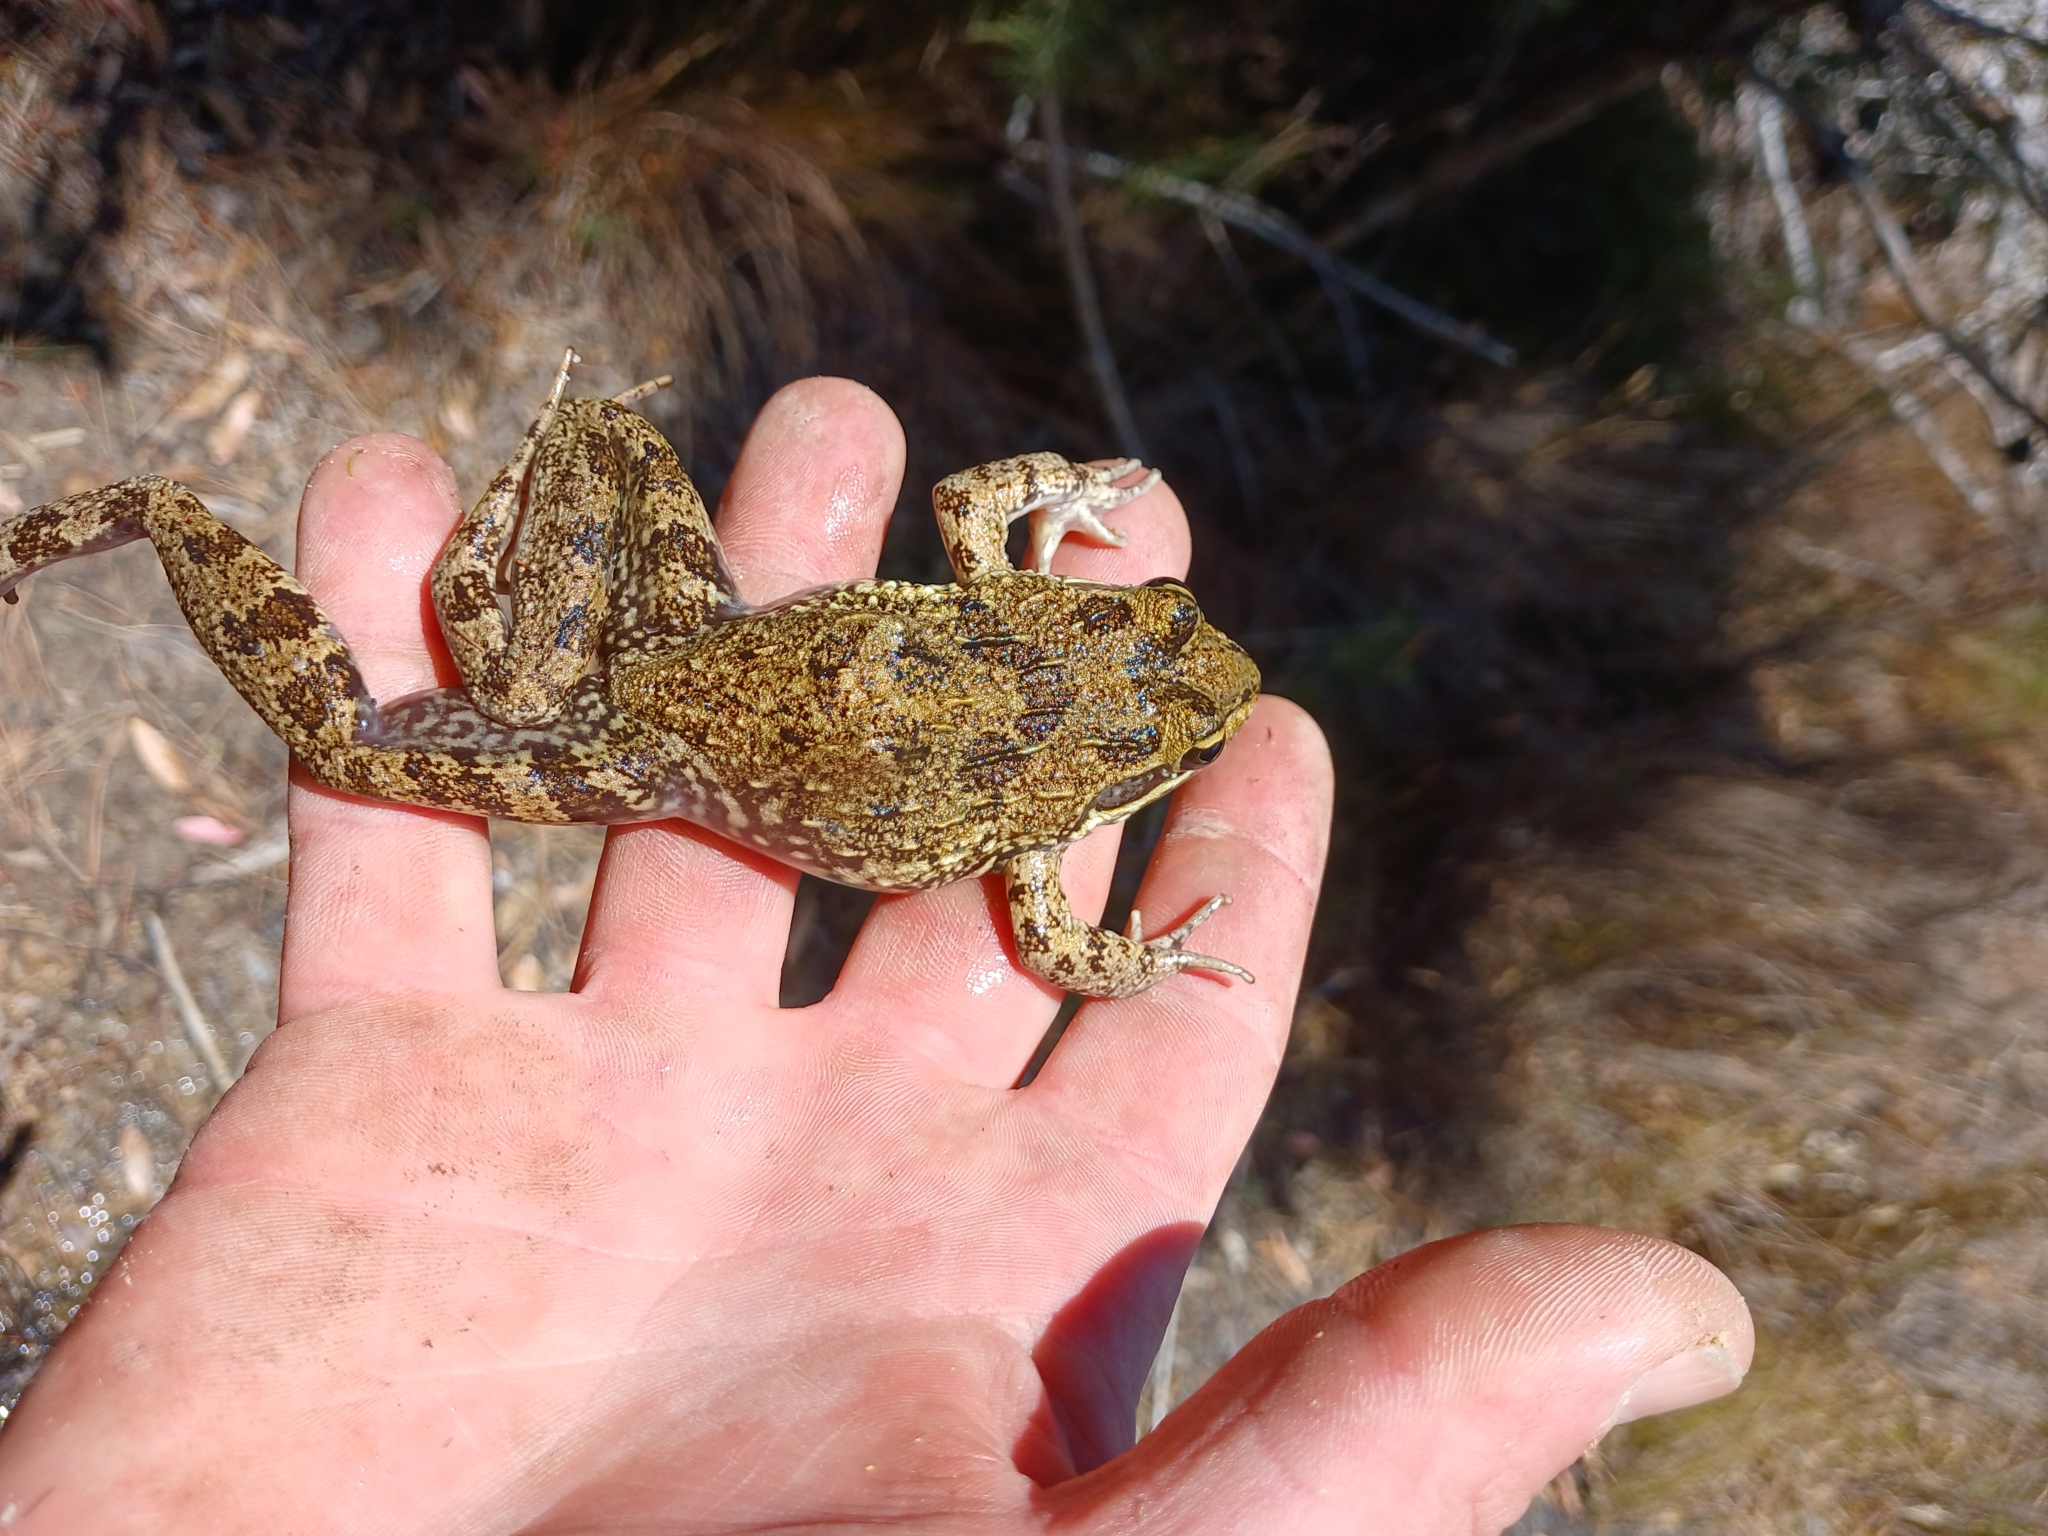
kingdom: Animalia
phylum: Chordata
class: Amphibia
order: Anura
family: Pyxicephalidae
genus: Amietia
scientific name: Amietia fuscigula
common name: Cape rana
